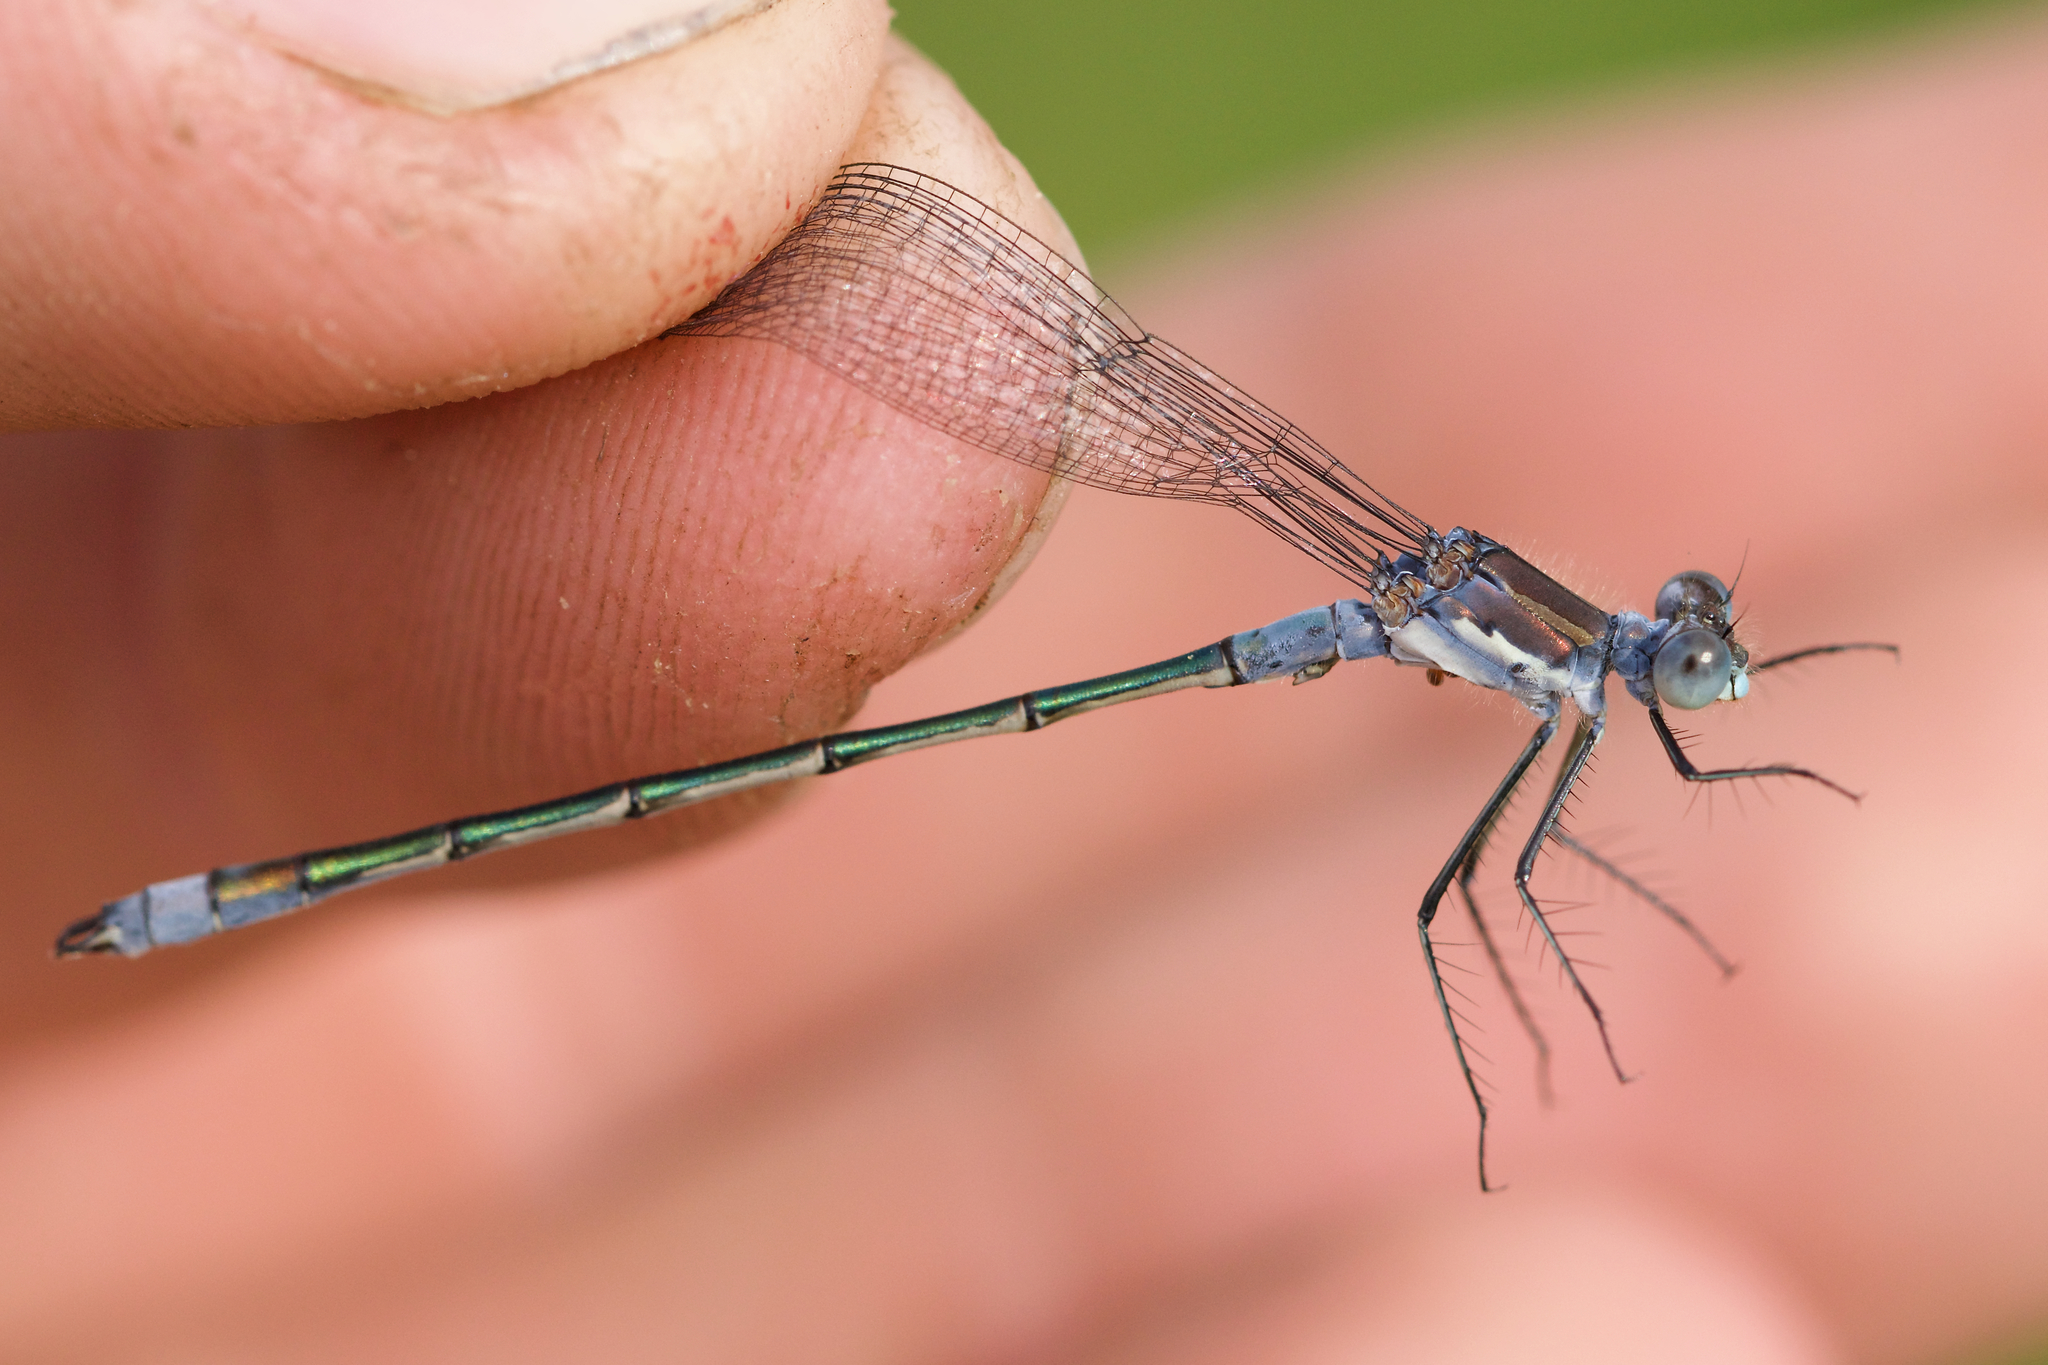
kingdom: Animalia
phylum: Arthropoda
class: Insecta
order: Odonata
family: Lestidae
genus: Lestes
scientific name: Lestes disjunctus
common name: Northern spreadwing
